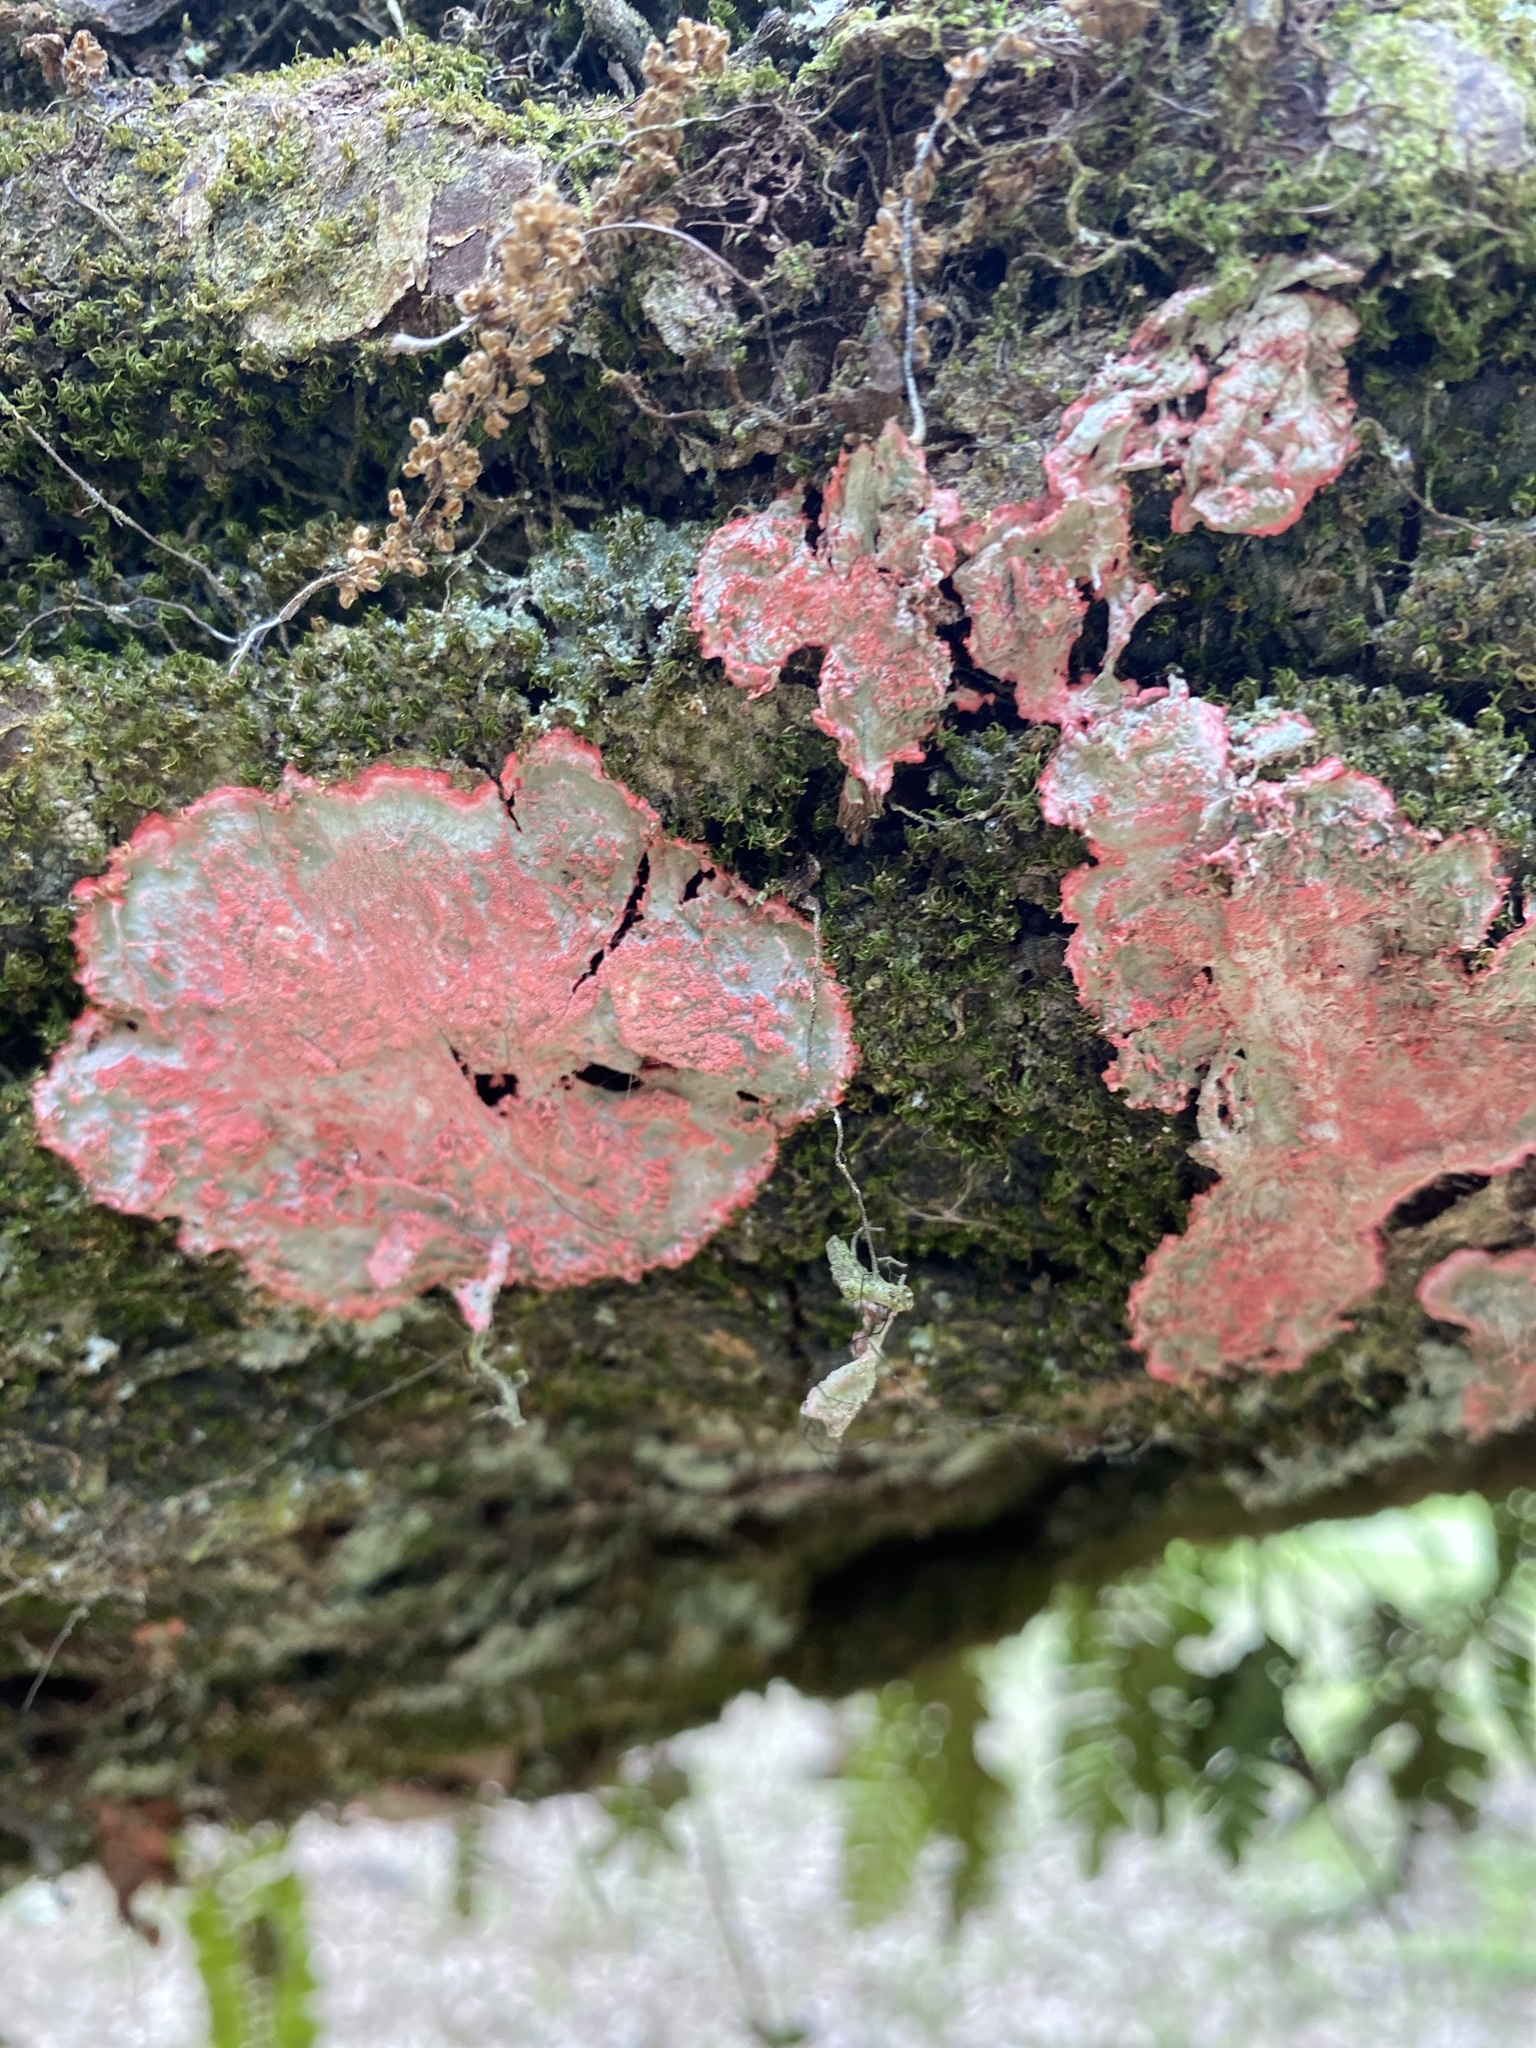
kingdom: Fungi
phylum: Ascomycota
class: Arthoniomycetes
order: Arthoniales
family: Arthoniaceae
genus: Herpothallon
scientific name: Herpothallon rubrocinctum
